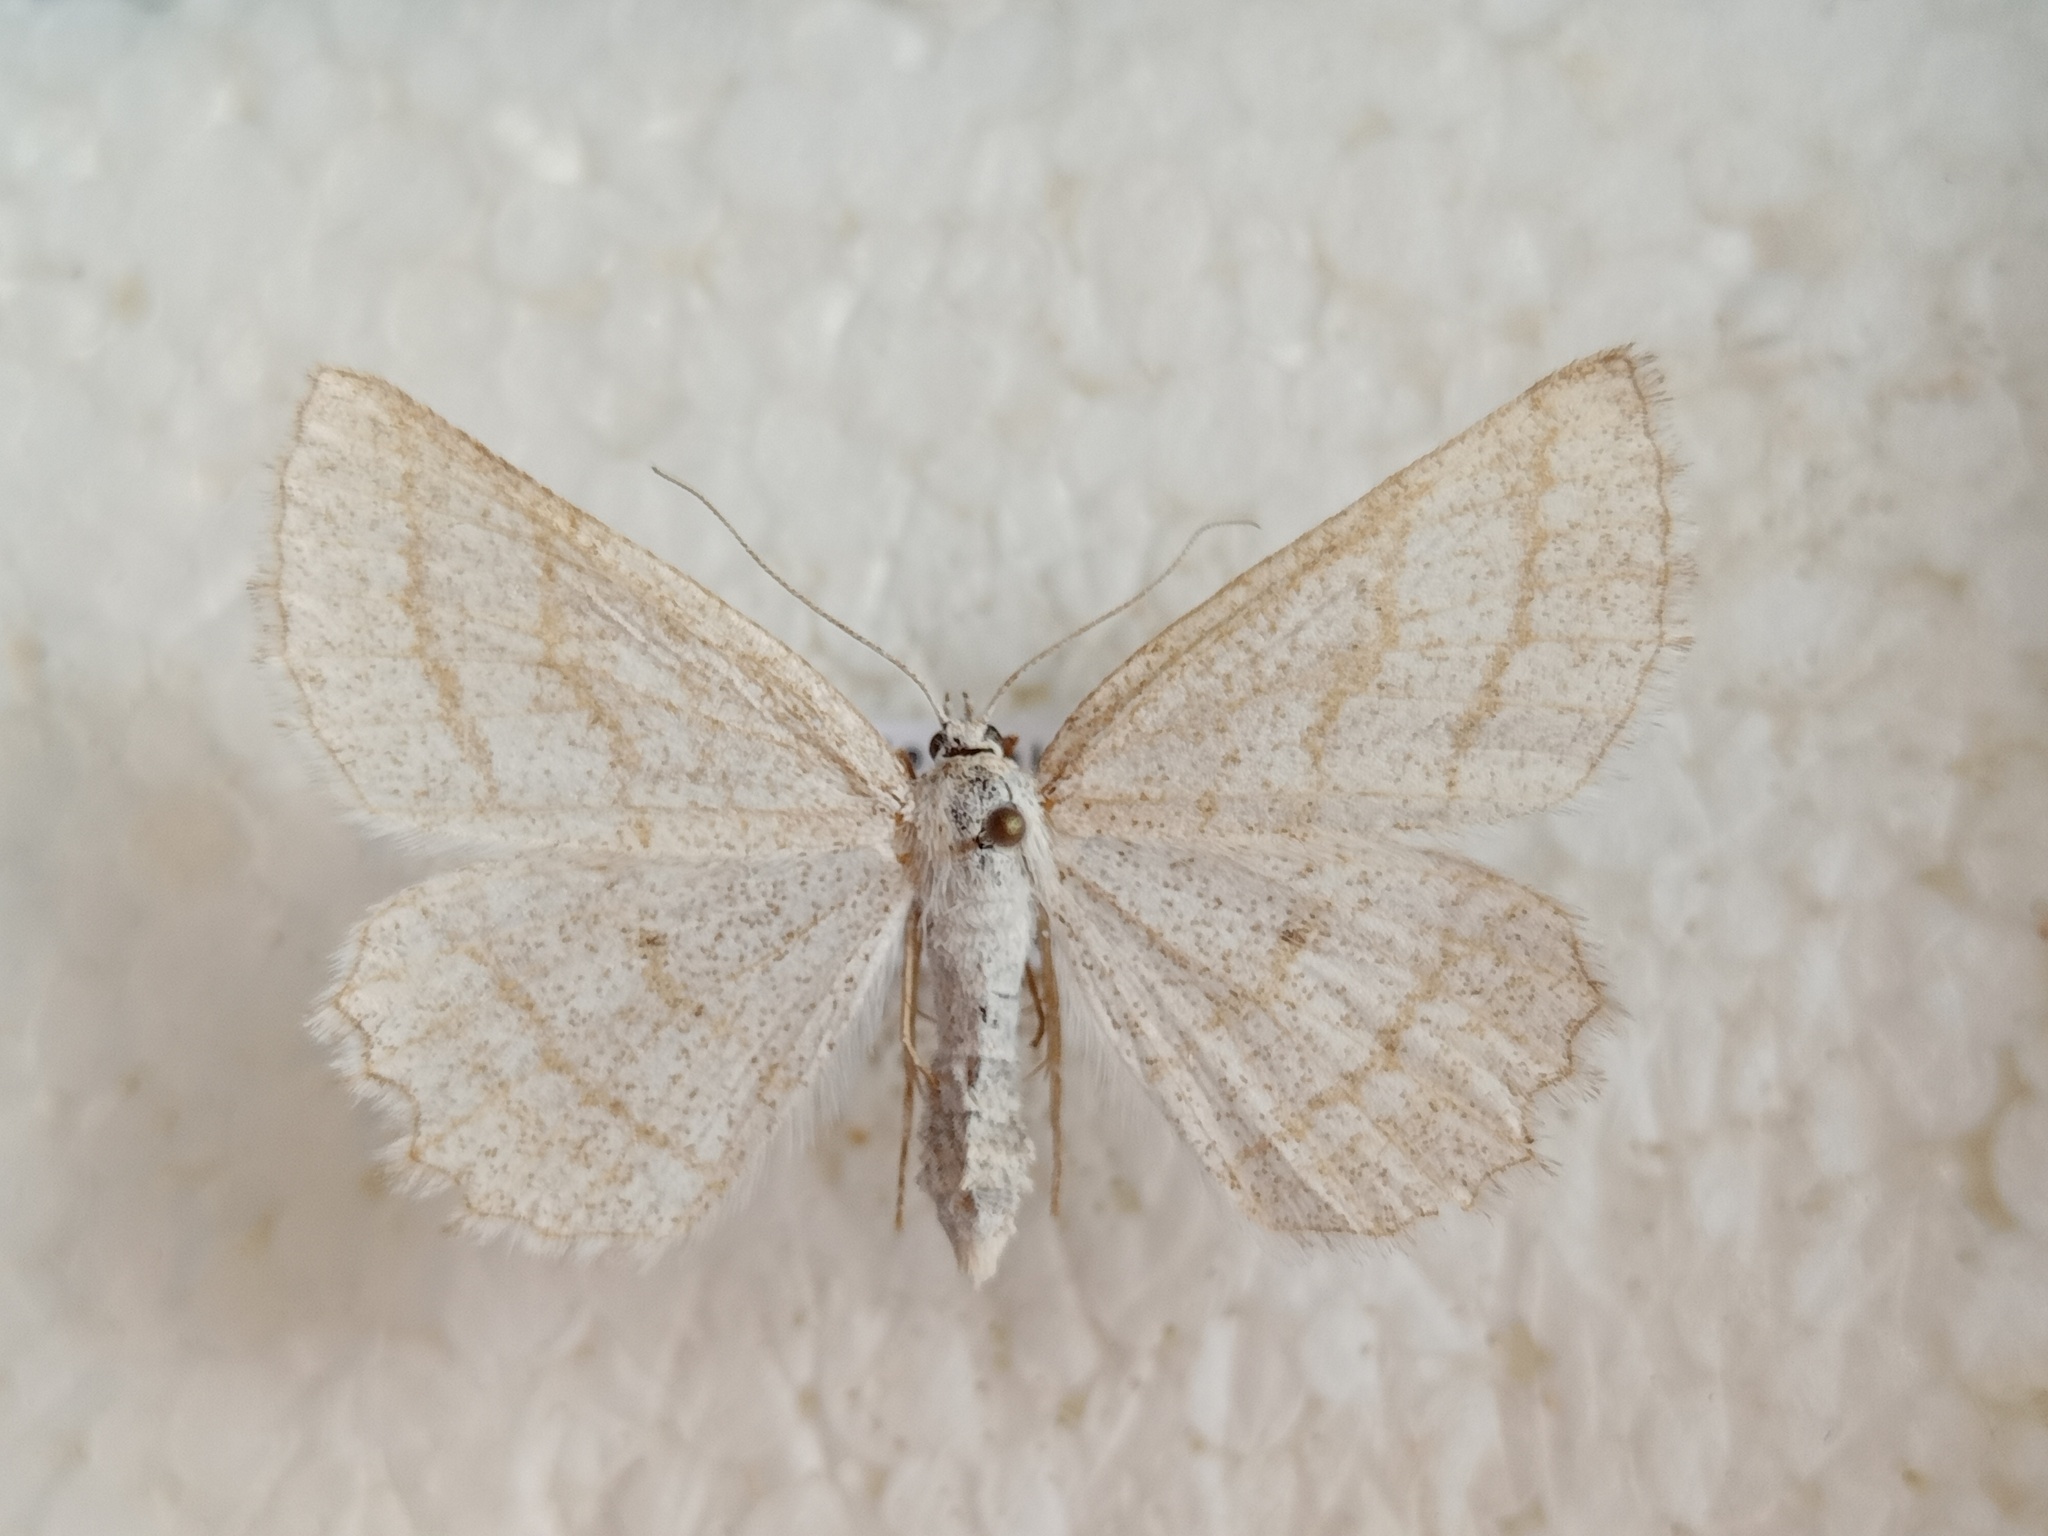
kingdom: Animalia
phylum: Arthropoda
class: Insecta
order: Lepidoptera
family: Geometridae
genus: Perconia
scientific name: Perconia strigillaria
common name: Grass wave
